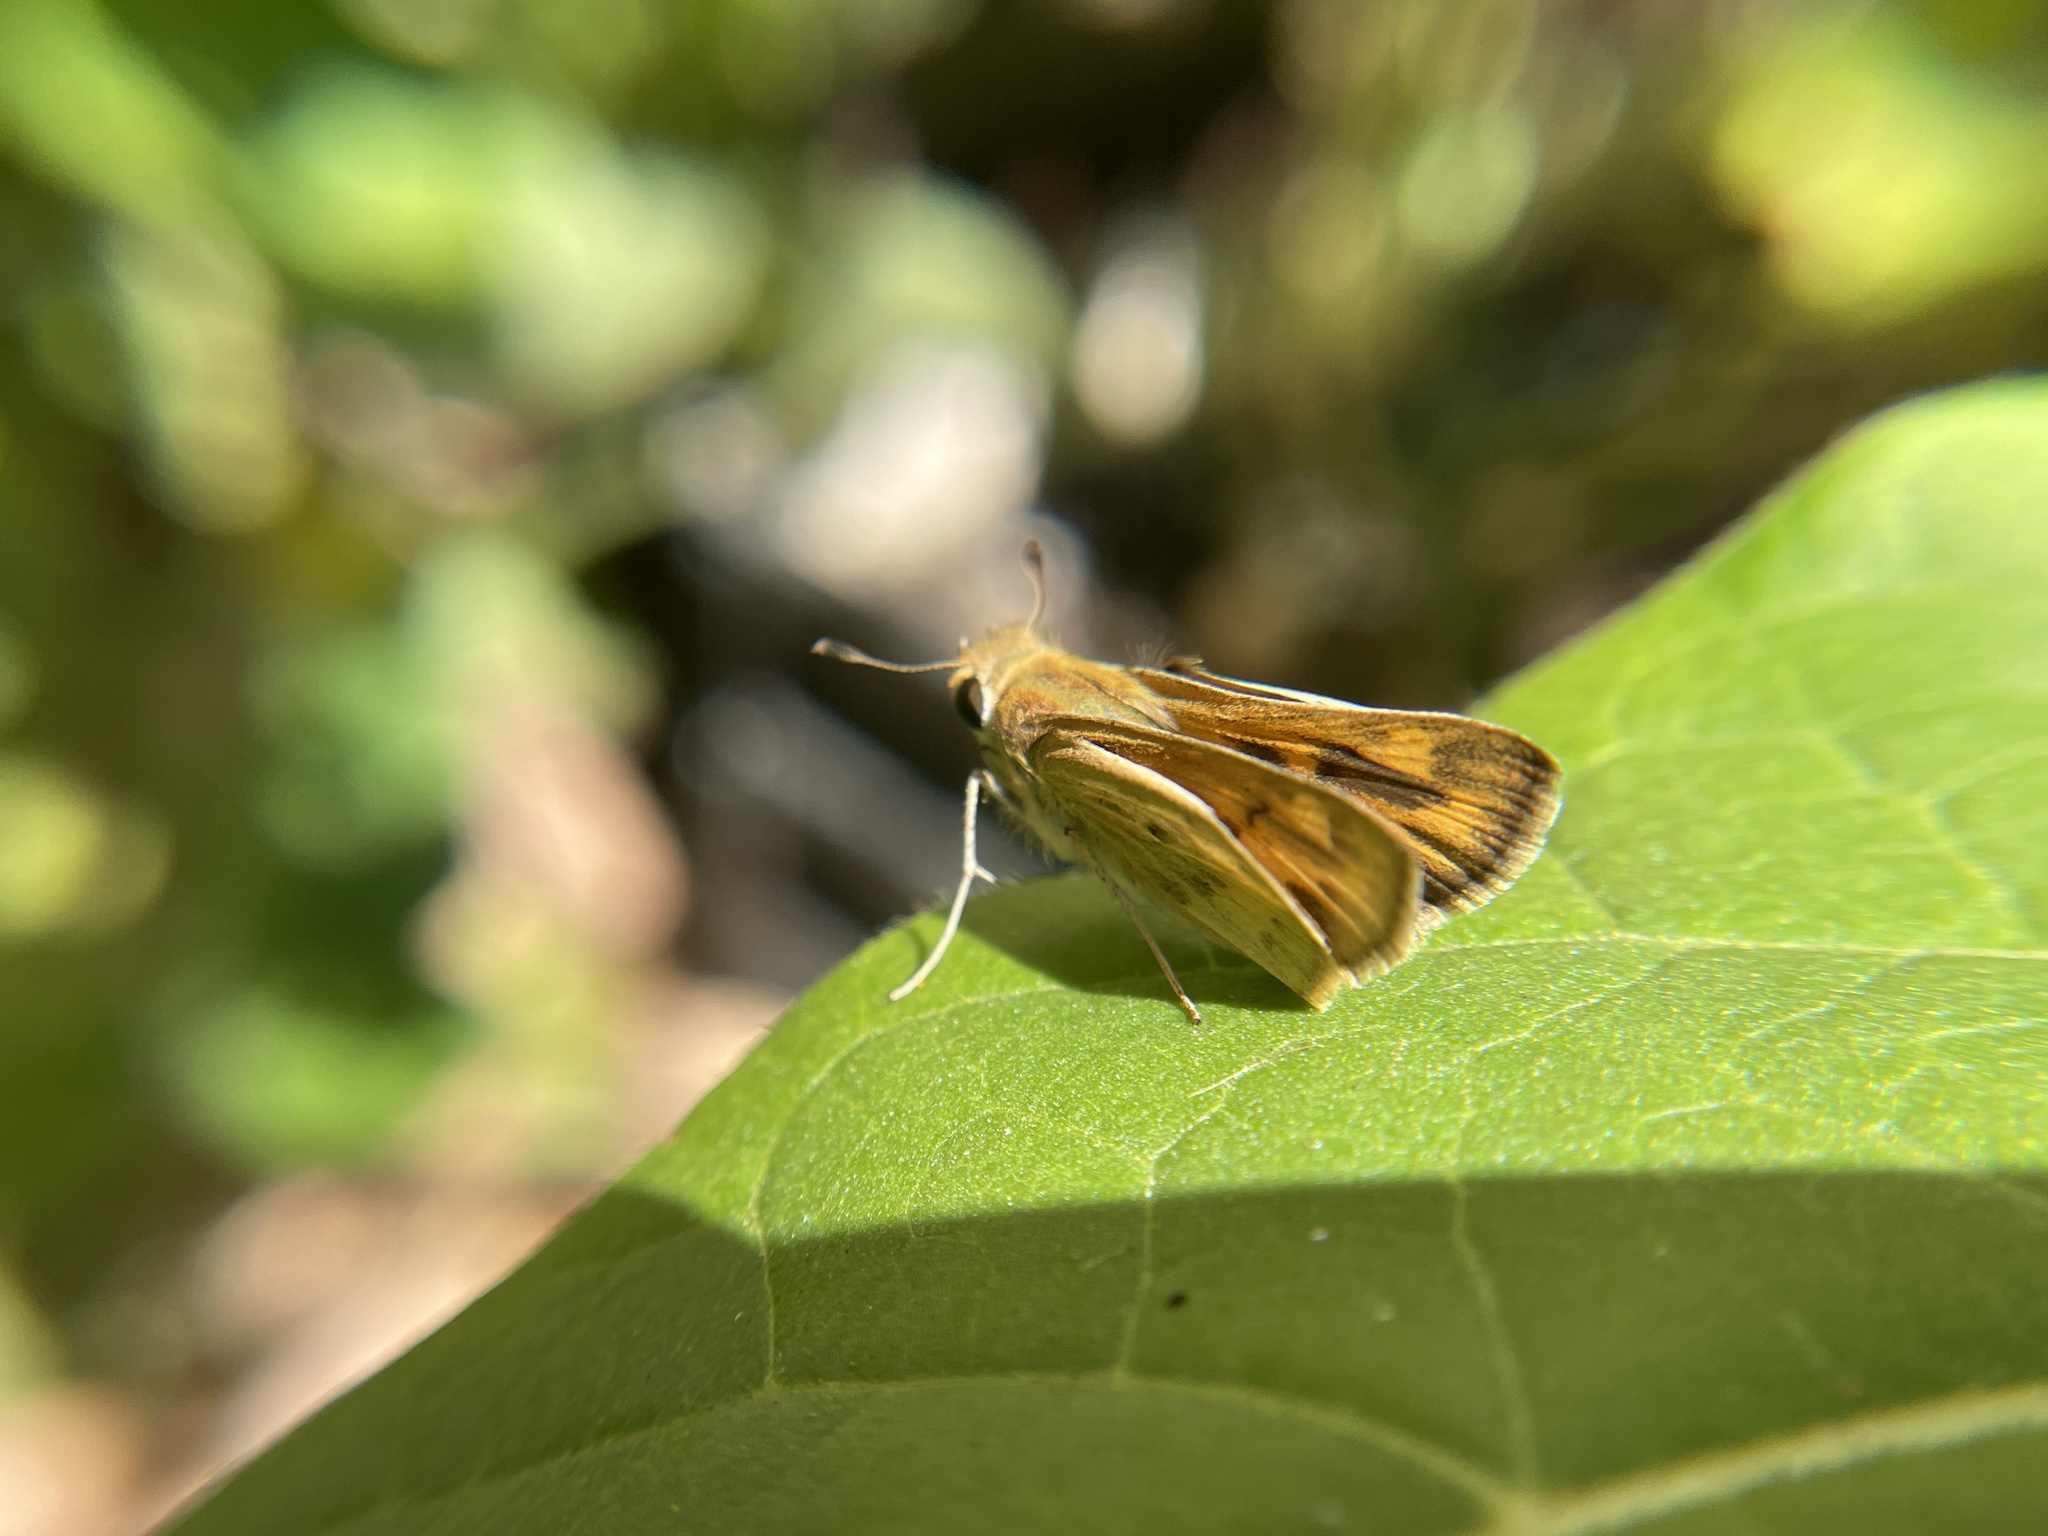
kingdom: Animalia
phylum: Arthropoda
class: Insecta
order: Lepidoptera
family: Hesperiidae
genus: Hylephila
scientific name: Hylephila phyleus
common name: Fiery skipper
